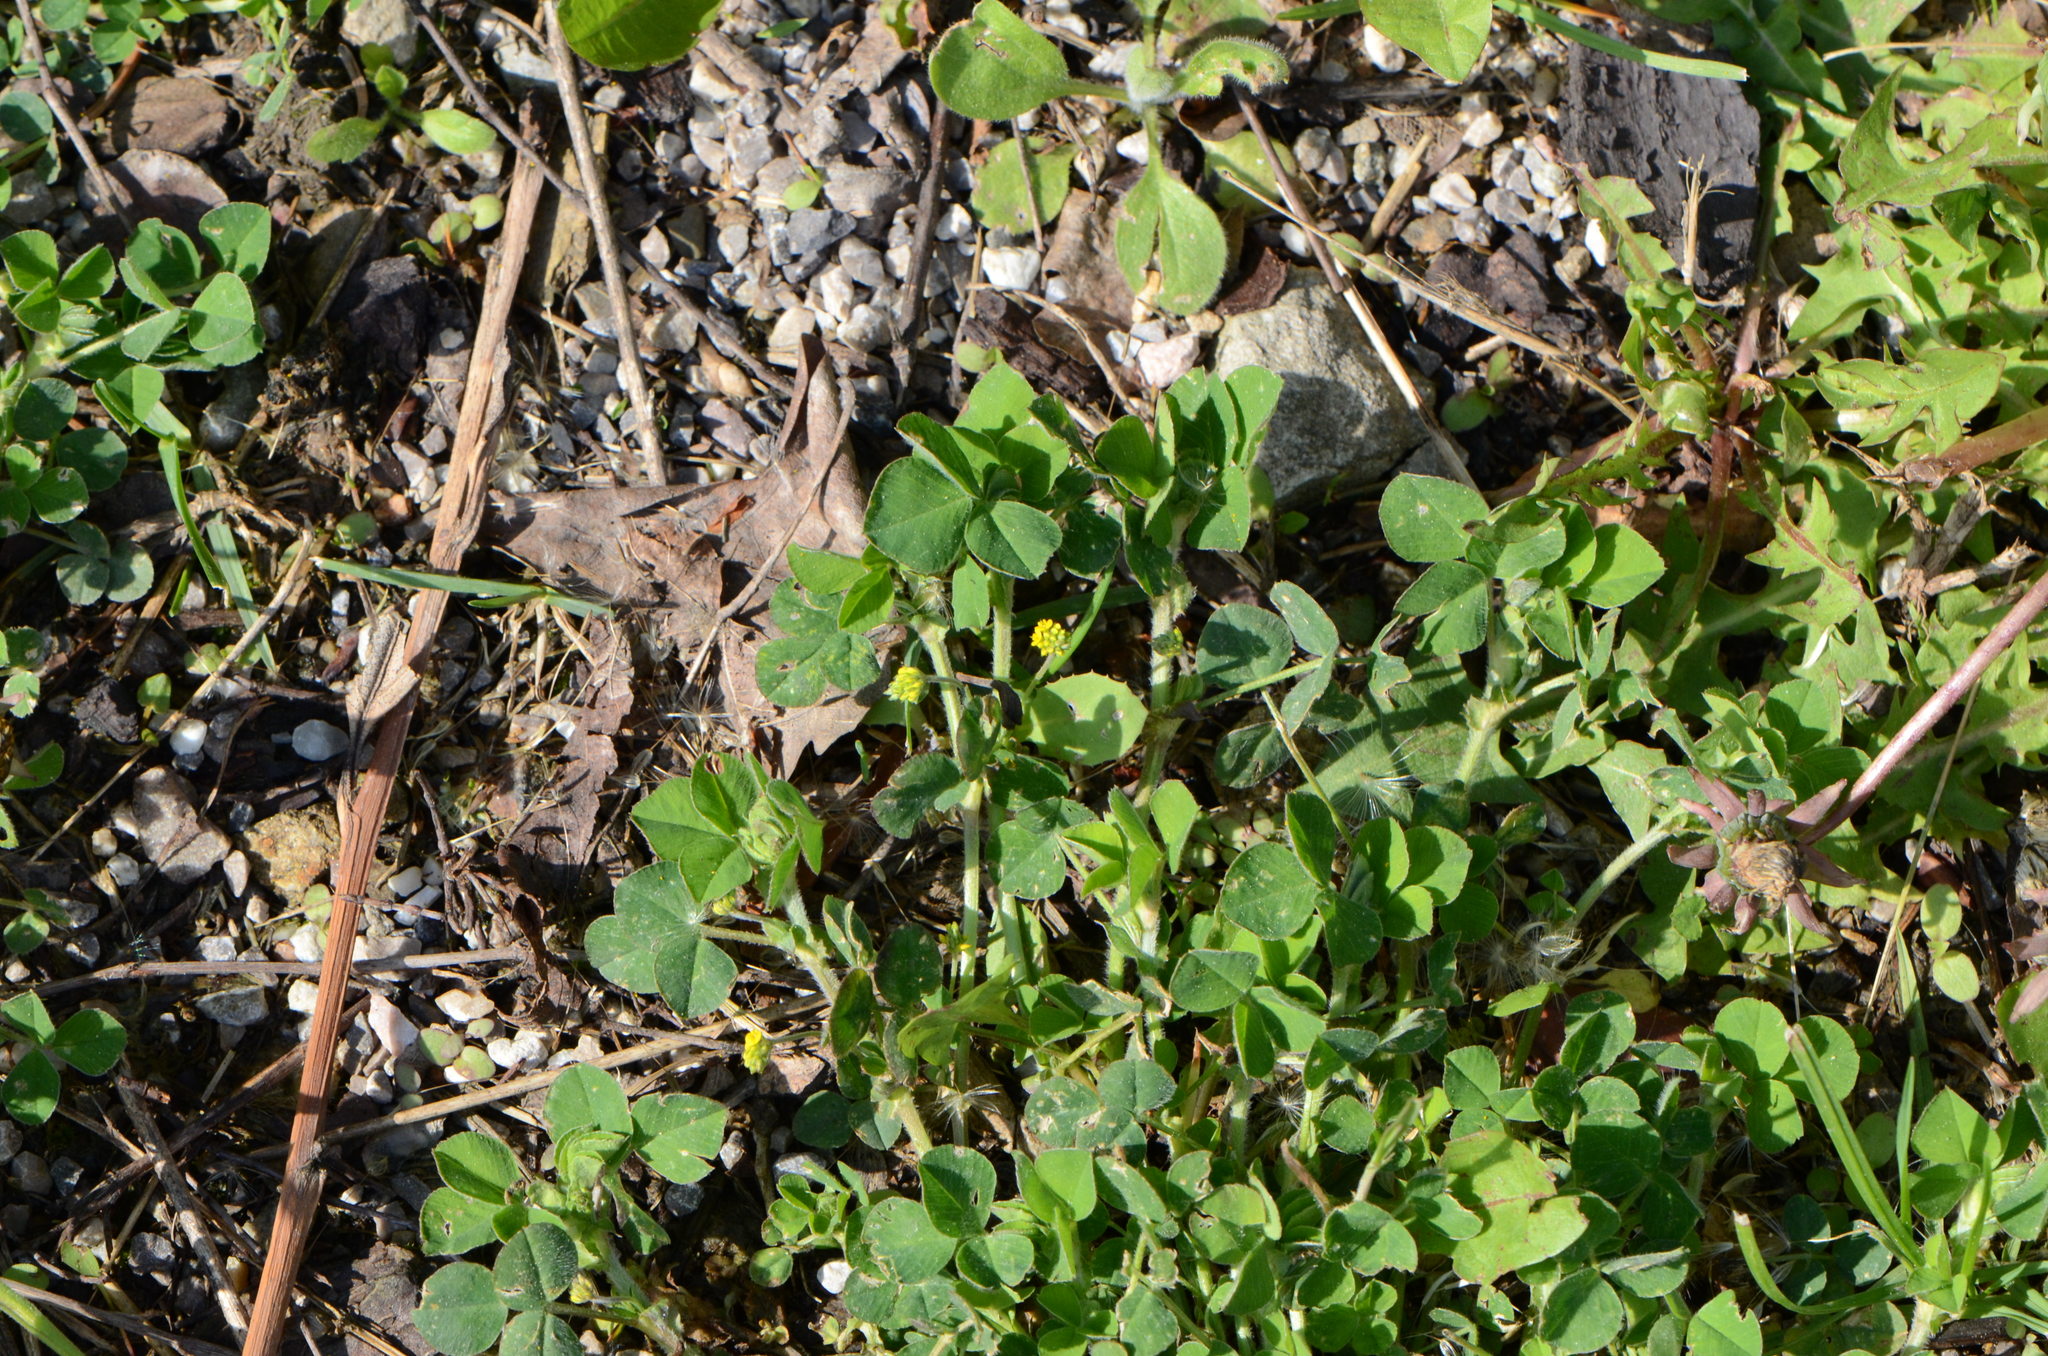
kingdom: Plantae
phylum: Tracheophyta
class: Magnoliopsida
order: Fabales
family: Fabaceae
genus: Medicago
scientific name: Medicago lupulina
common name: Black medick
